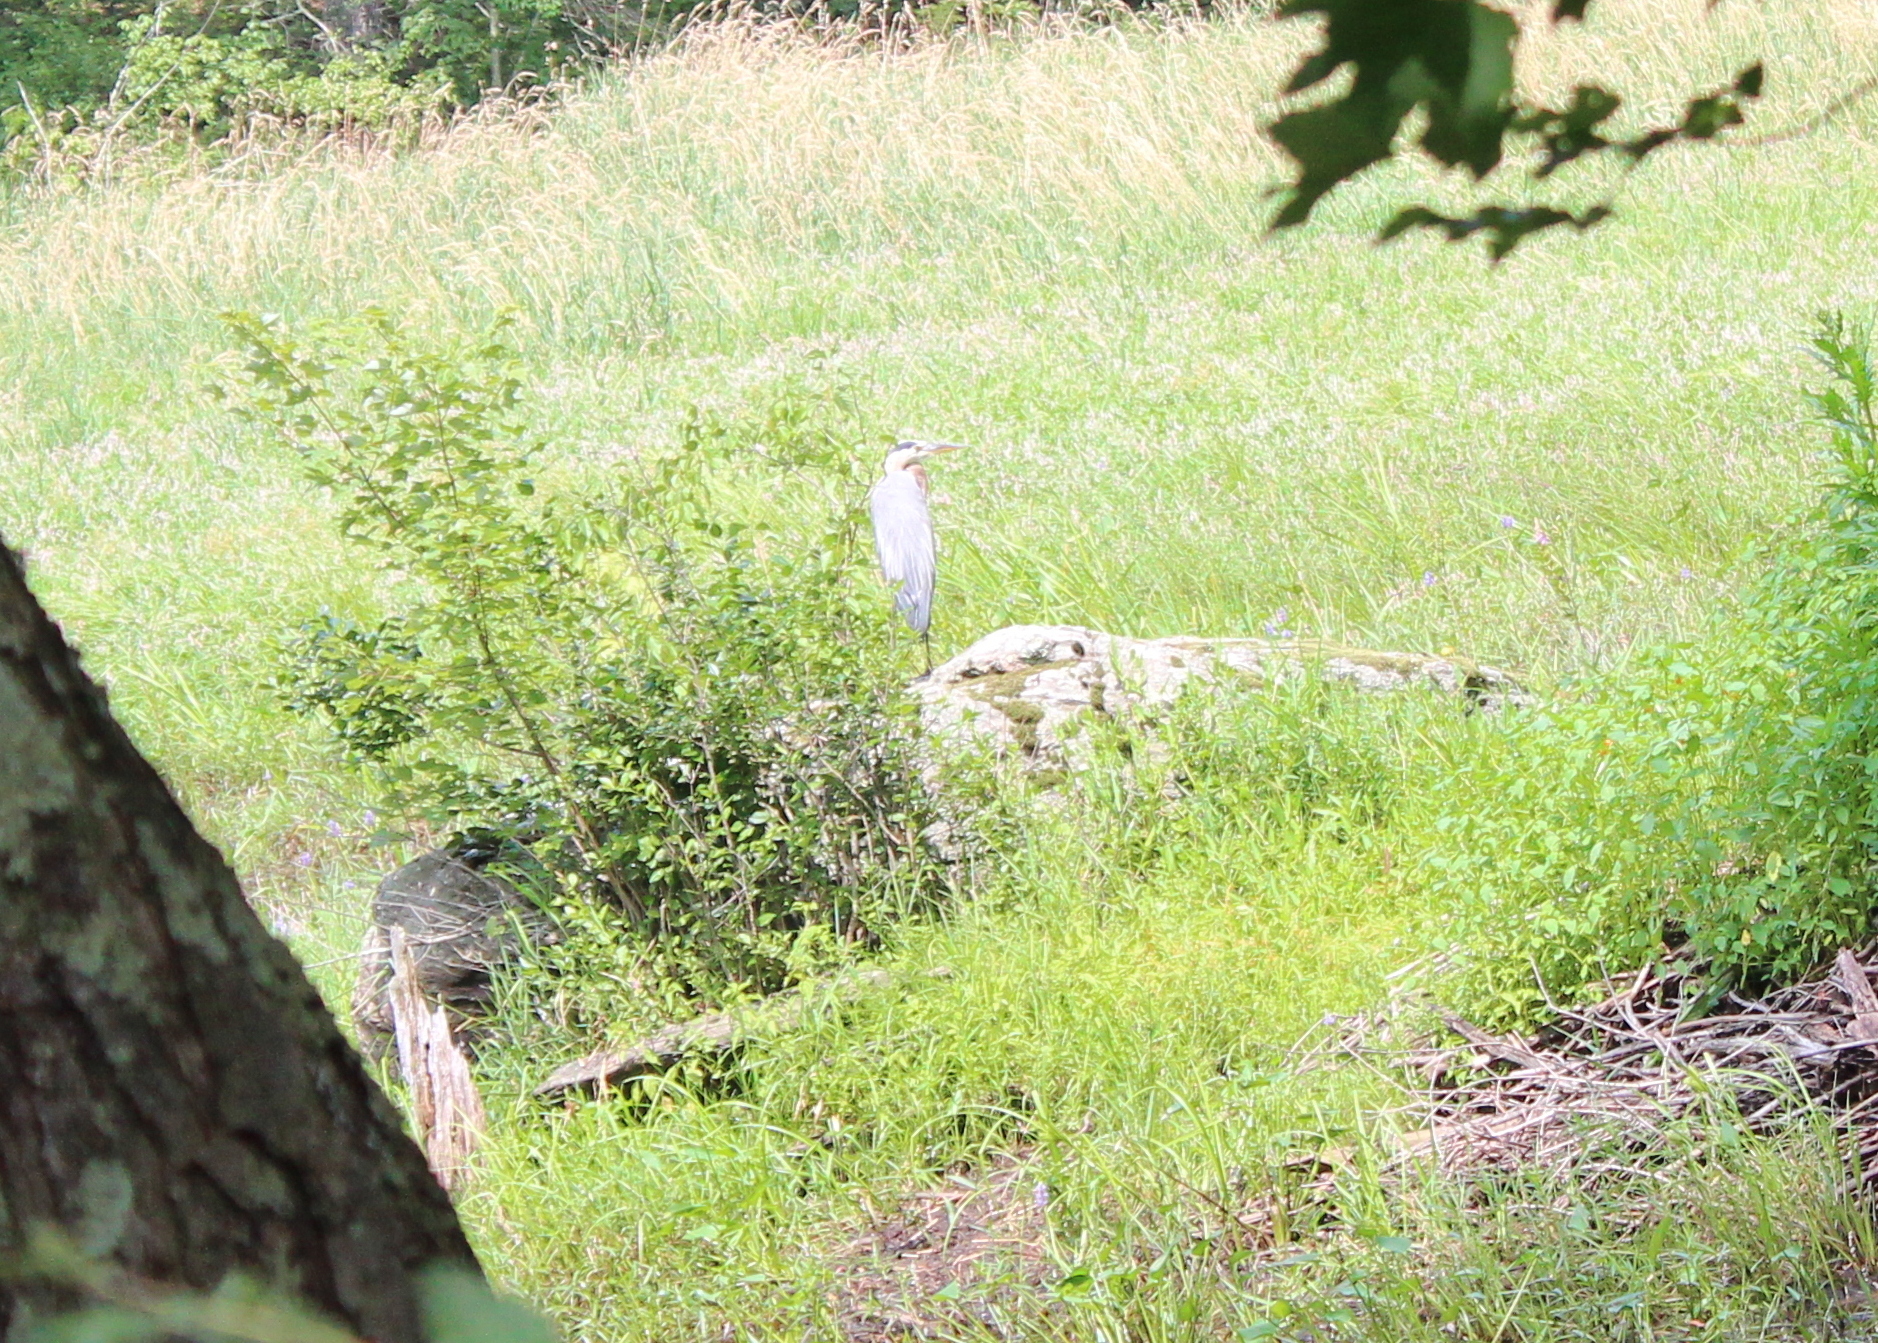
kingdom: Animalia
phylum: Chordata
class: Aves
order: Pelecaniformes
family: Ardeidae
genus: Ardea
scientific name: Ardea herodias
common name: Great blue heron
